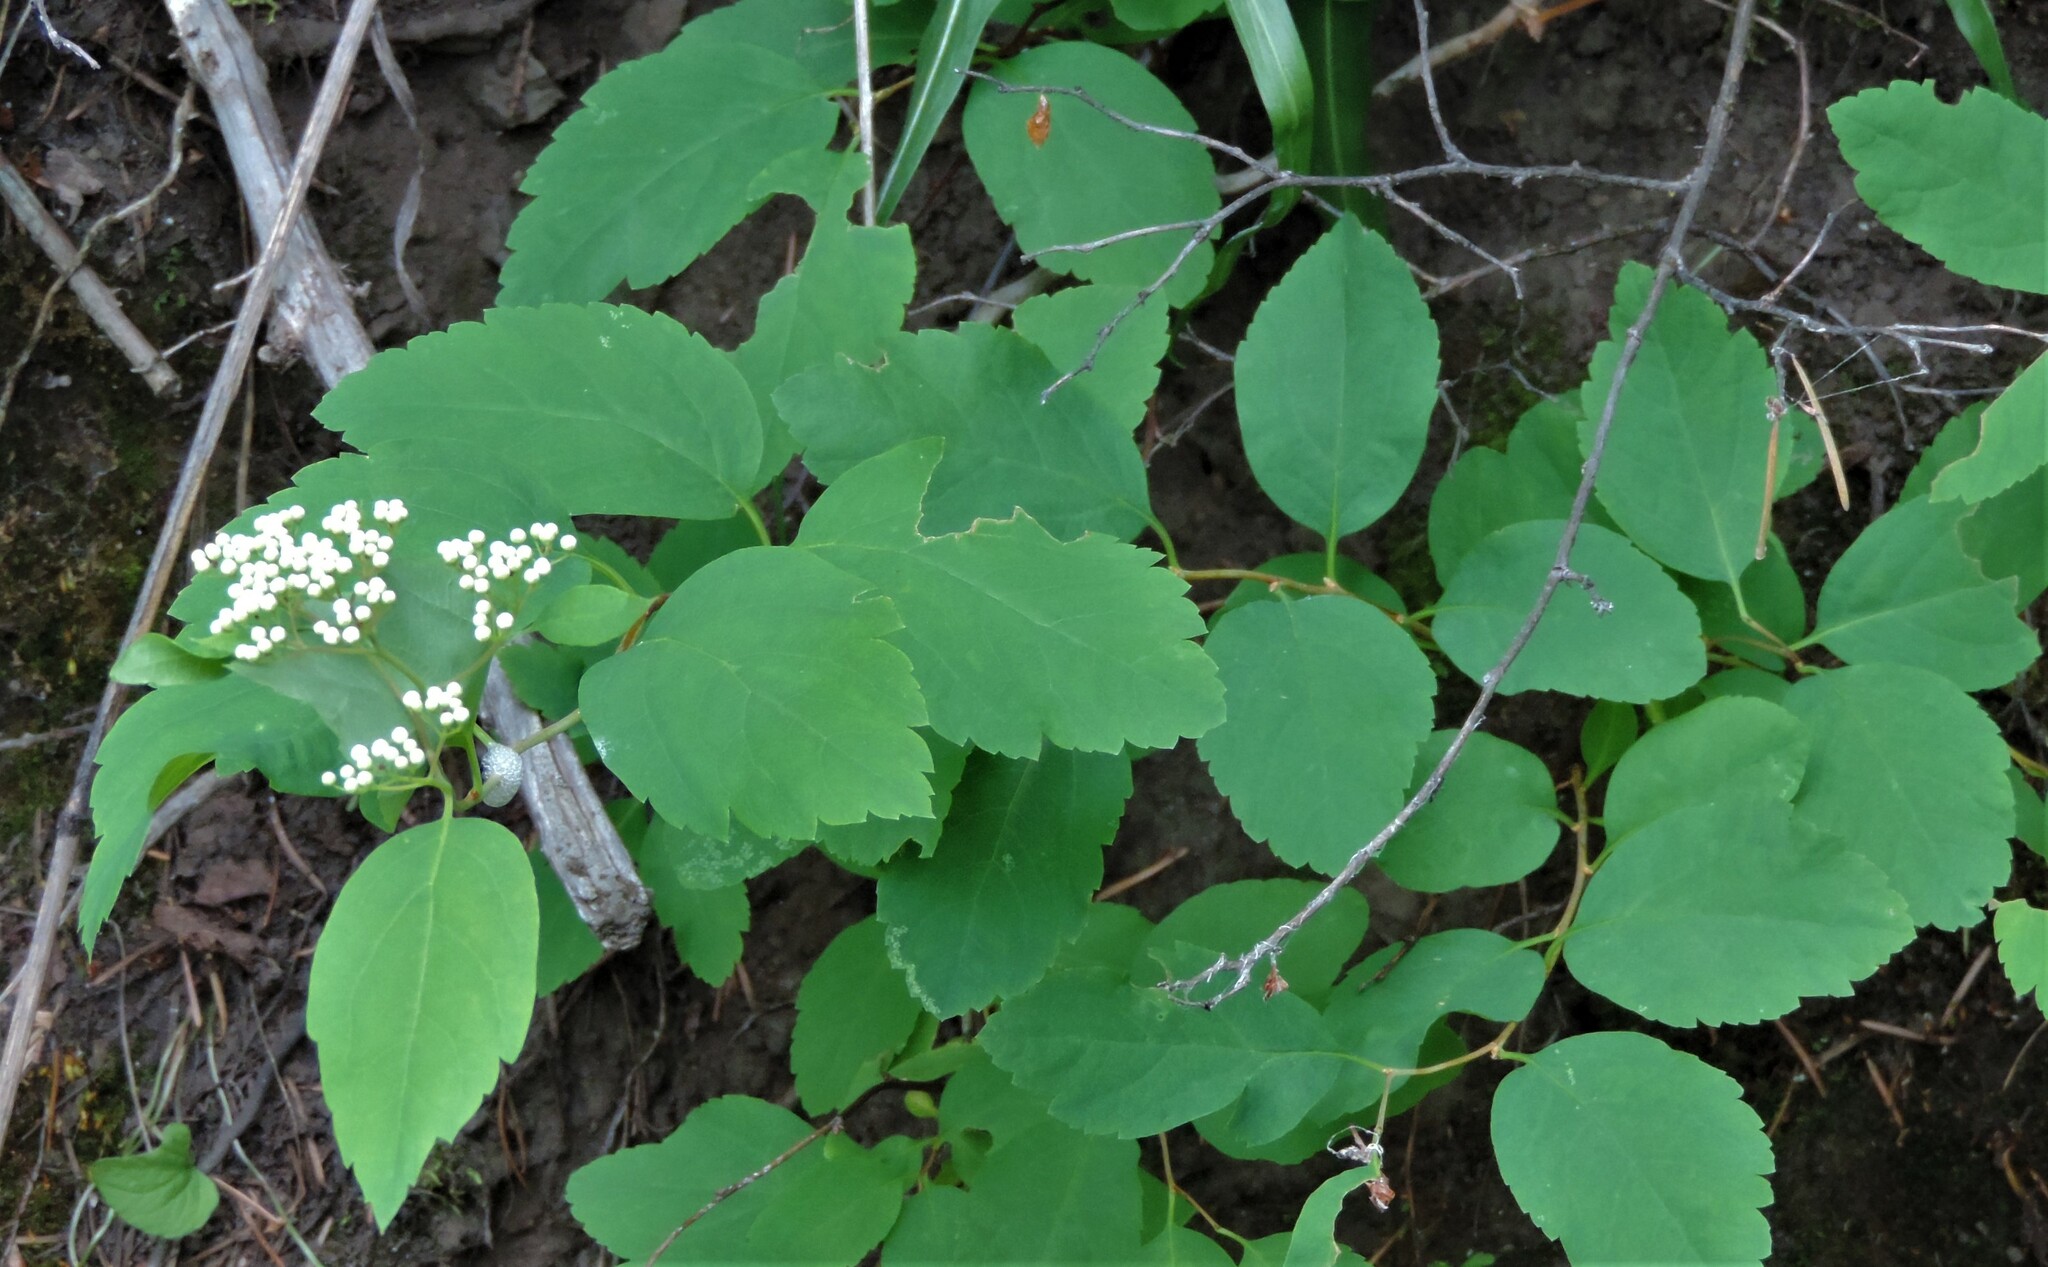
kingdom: Plantae
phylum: Tracheophyta
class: Magnoliopsida
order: Rosales
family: Rosaceae
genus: Spiraea
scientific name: Spiraea lucida
